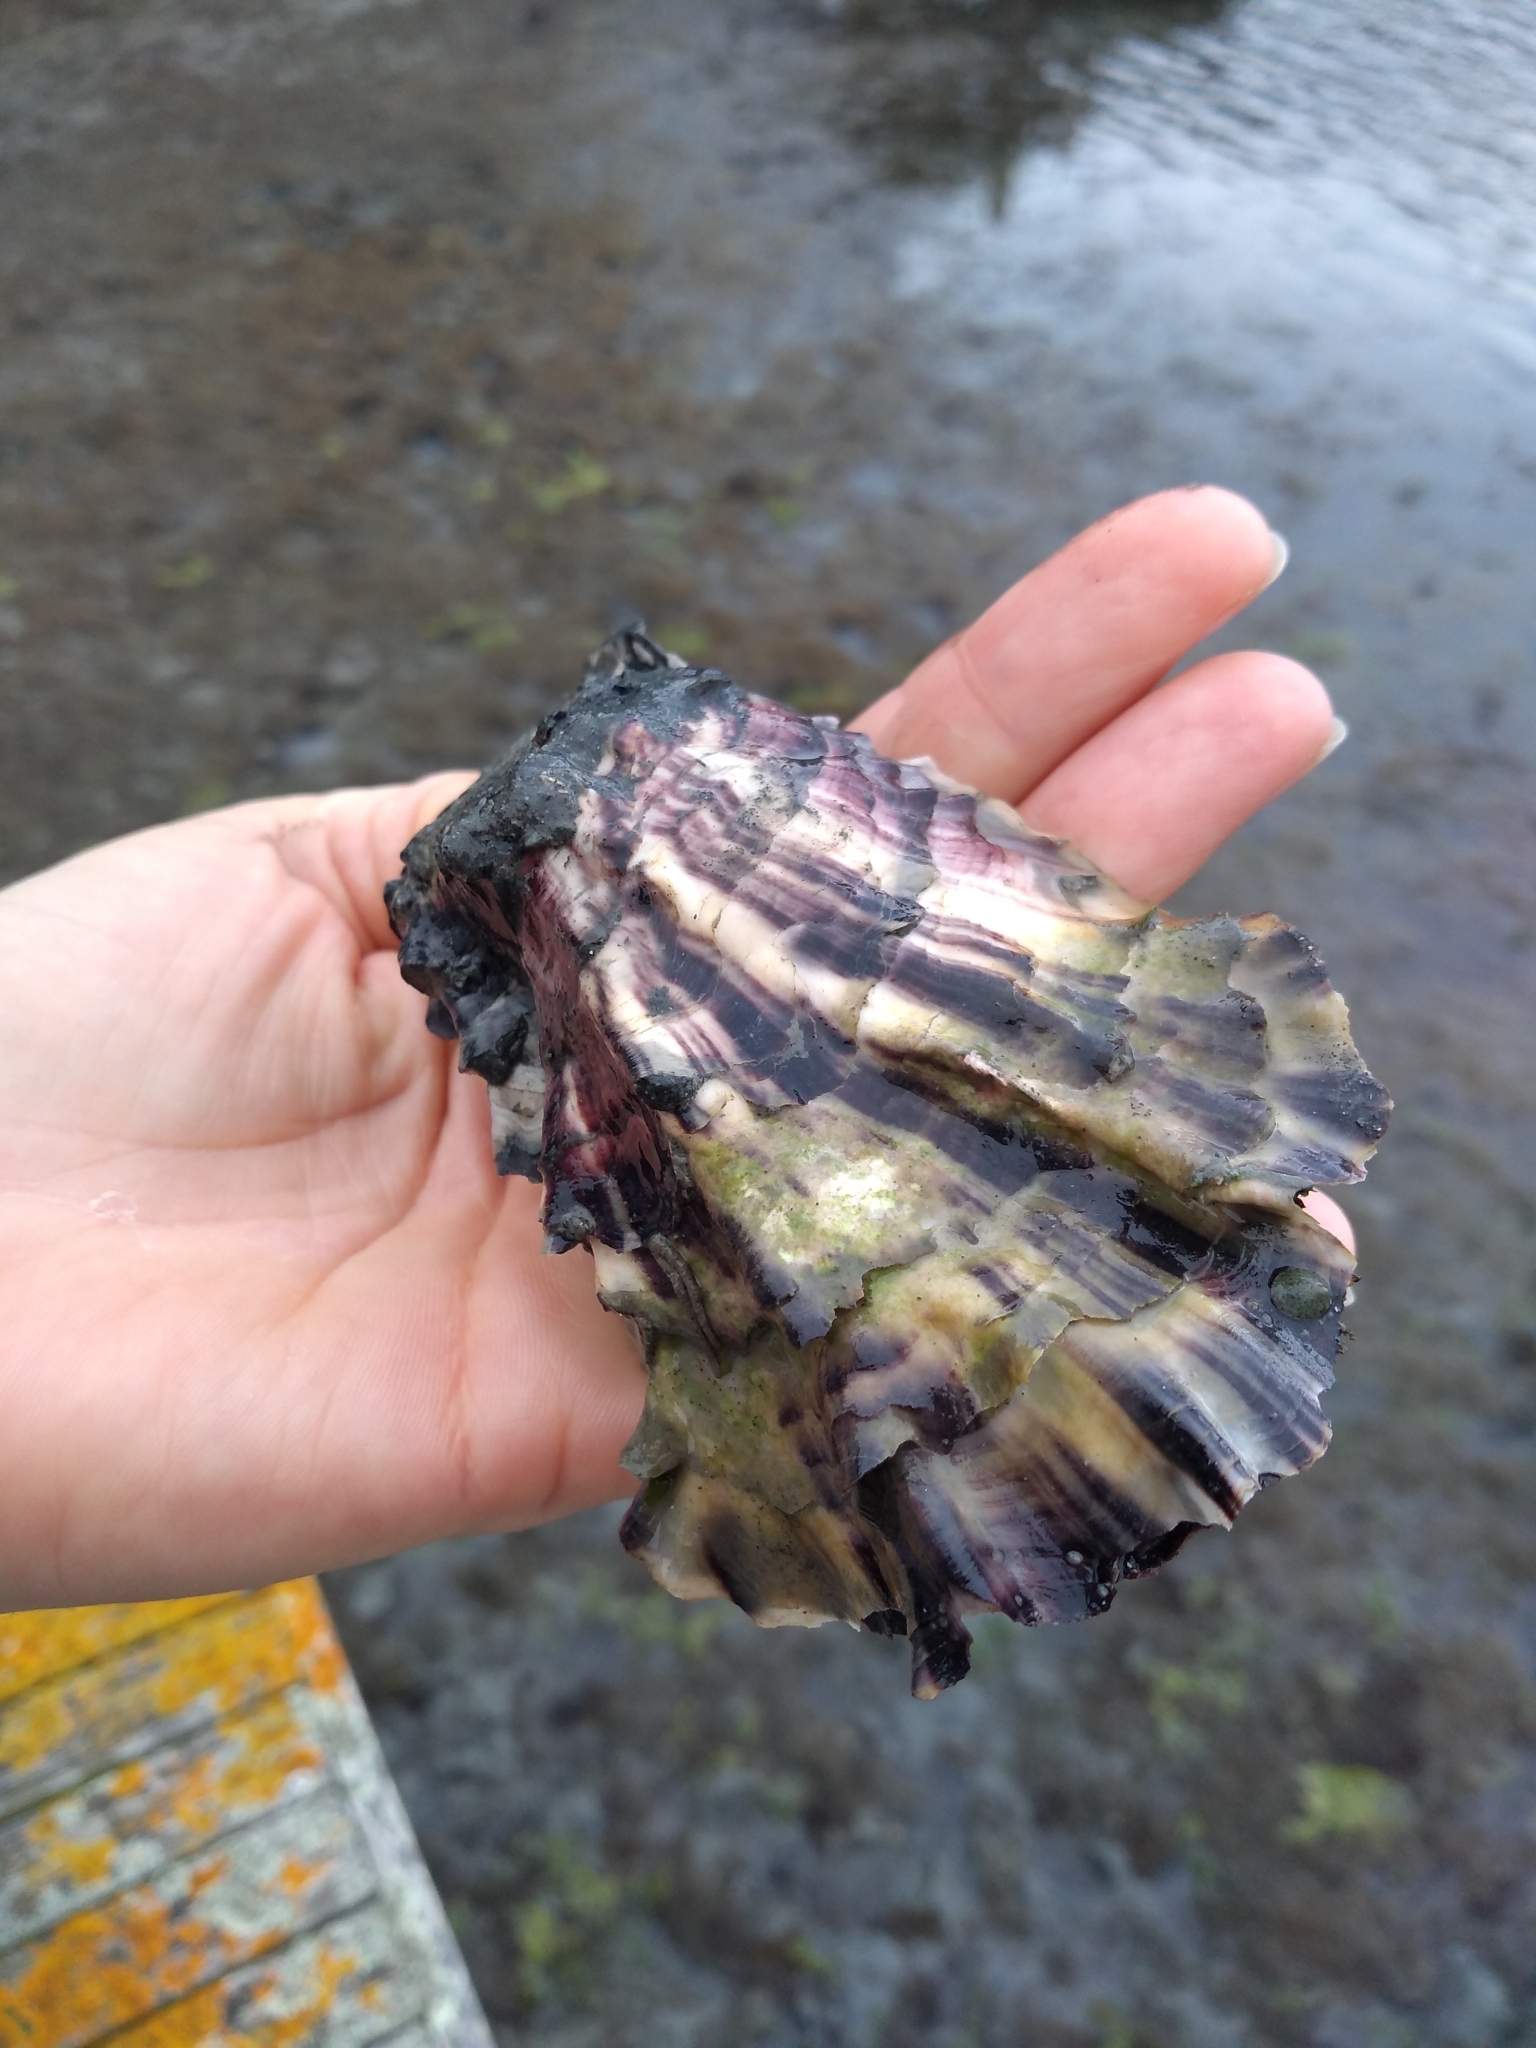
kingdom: Animalia
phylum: Mollusca
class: Bivalvia
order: Ostreida
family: Ostreidae
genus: Magallana
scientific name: Magallana gigas
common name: Pacific oyster
